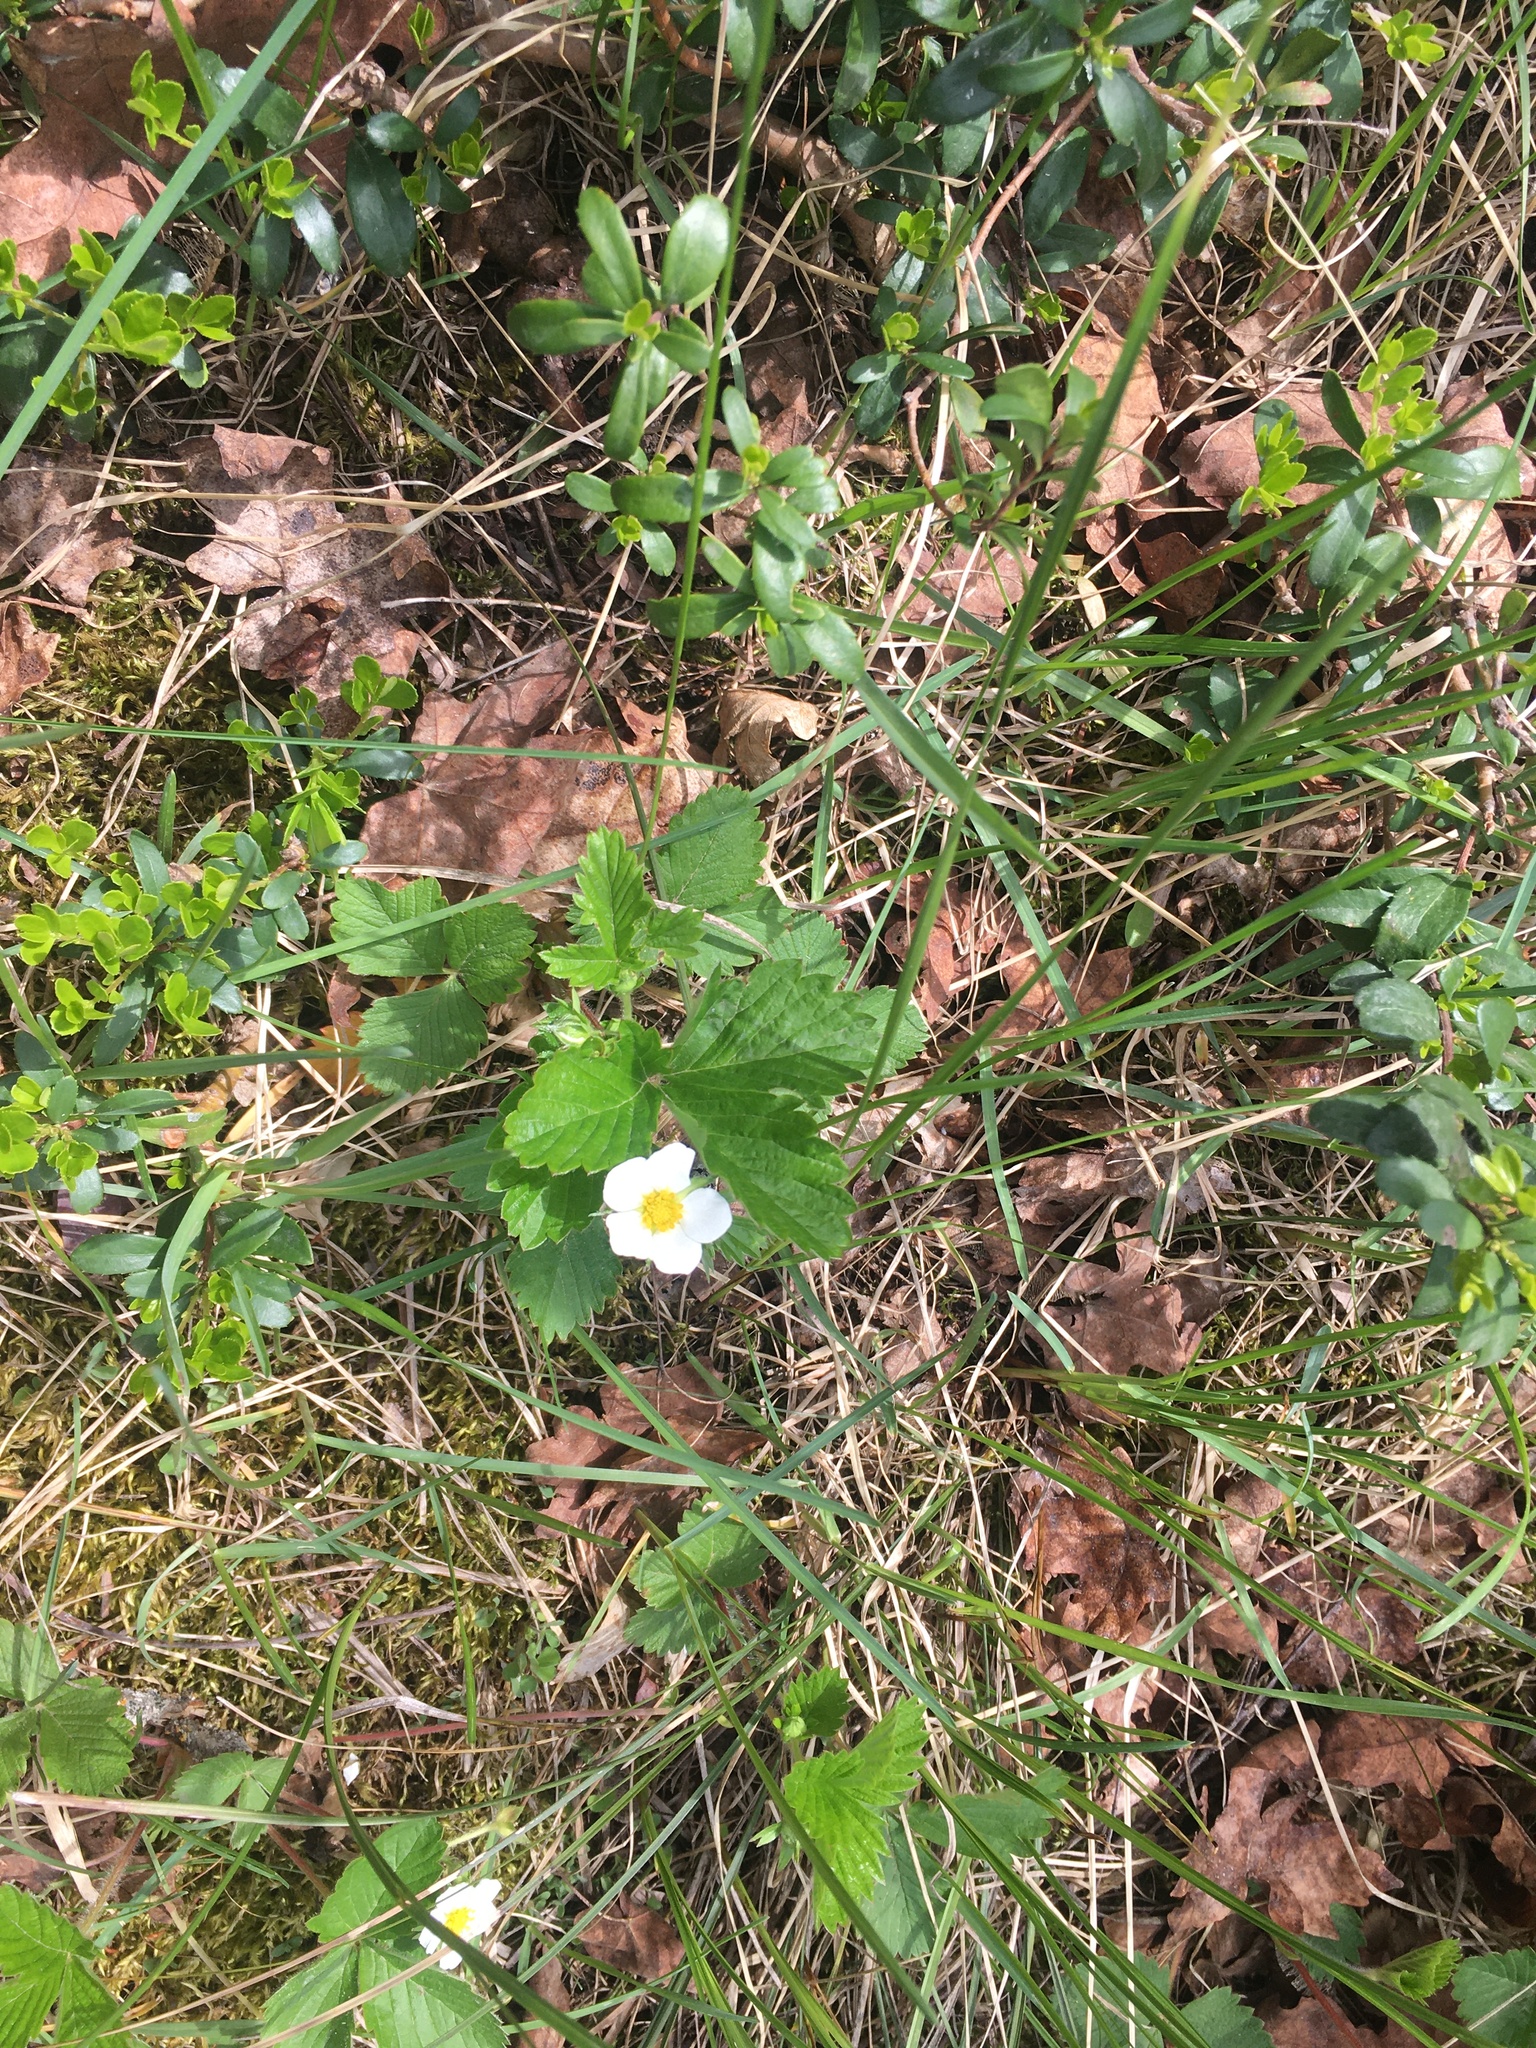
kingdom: Plantae
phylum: Tracheophyta
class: Magnoliopsida
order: Rosales
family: Rosaceae
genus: Fragaria
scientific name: Fragaria vesca
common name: Wild strawberry
